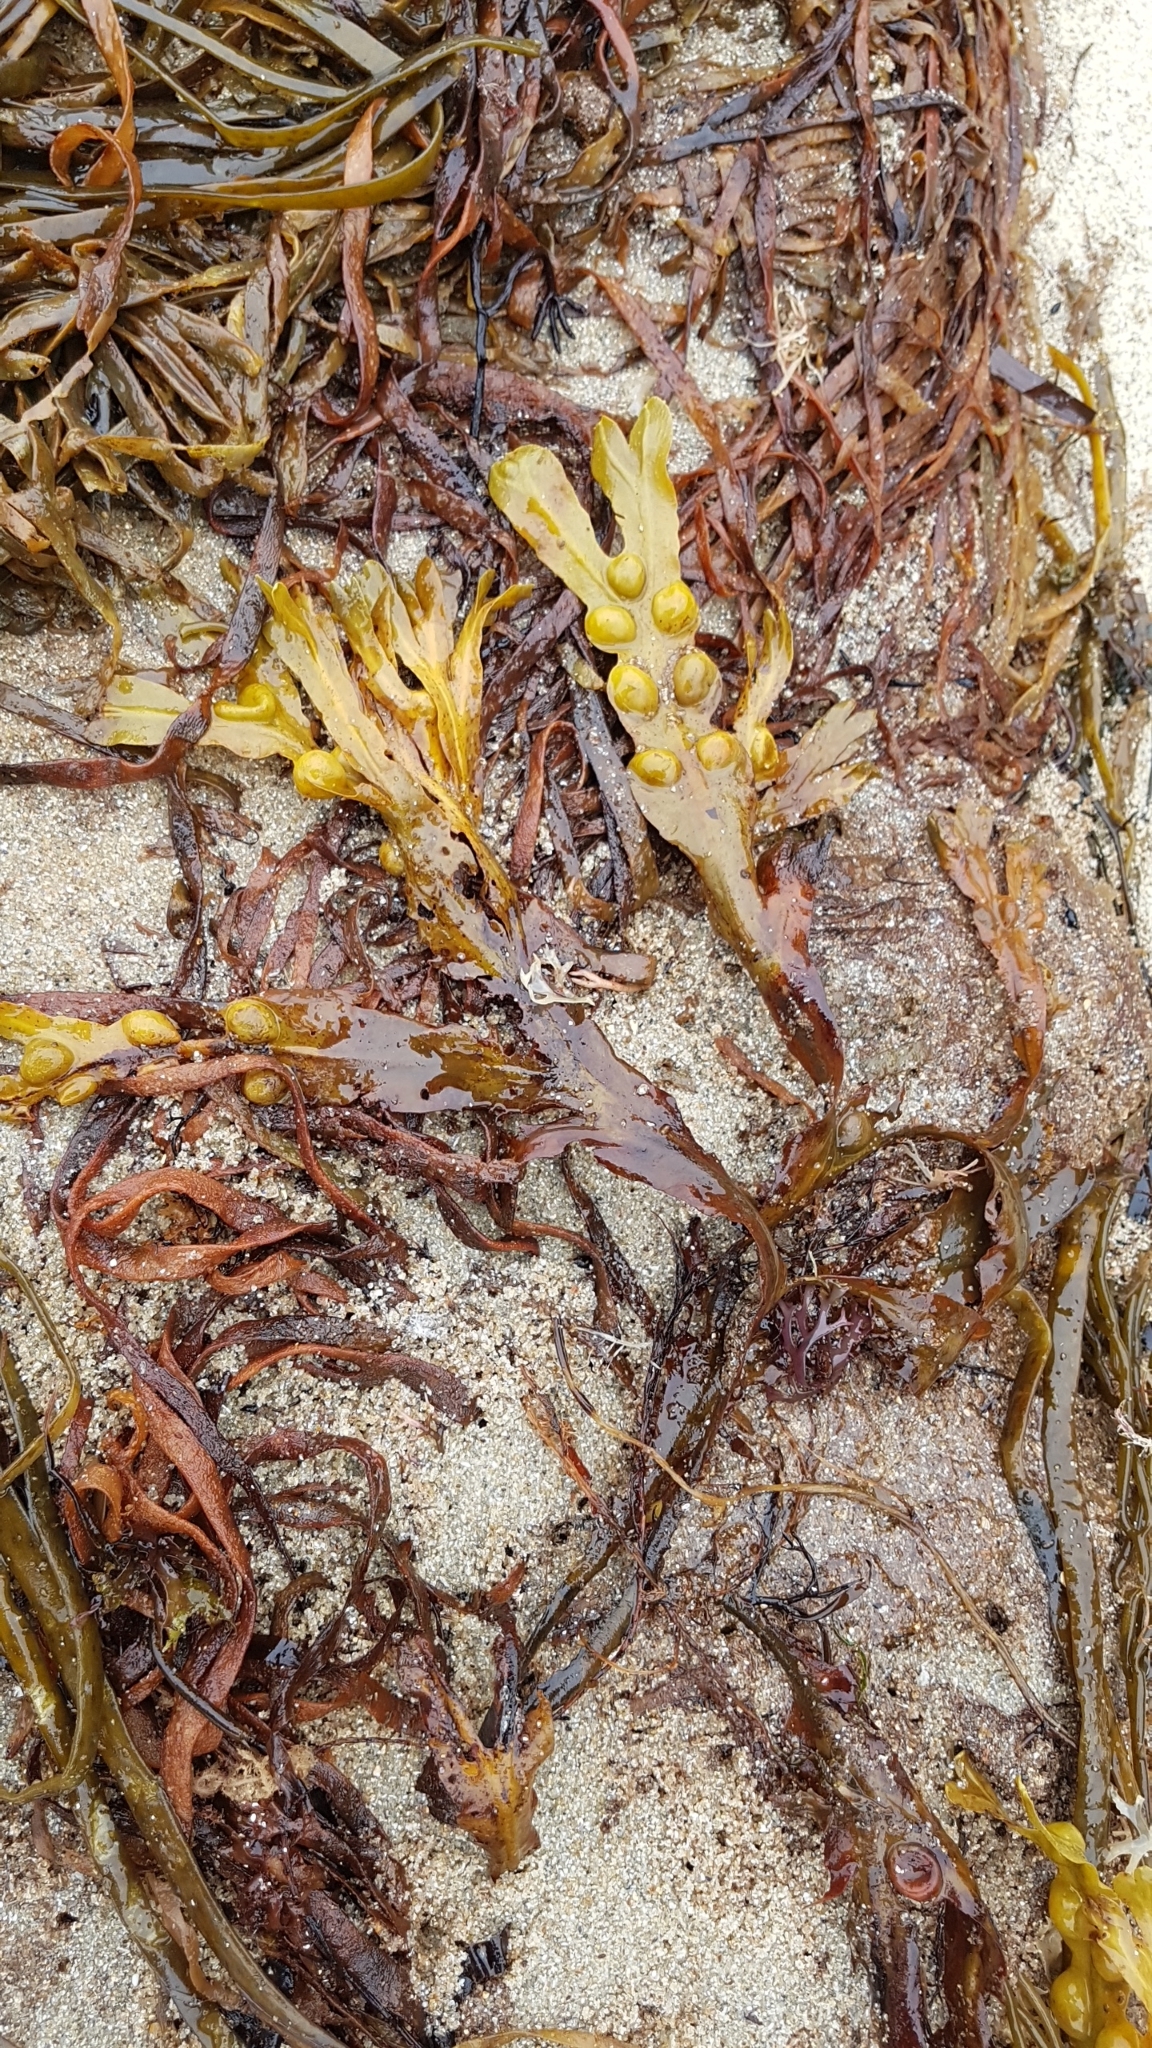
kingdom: Chromista
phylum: Ochrophyta
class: Phaeophyceae
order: Fucales
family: Fucaceae
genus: Fucus
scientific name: Fucus vesiculosus
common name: Bladder wrack
